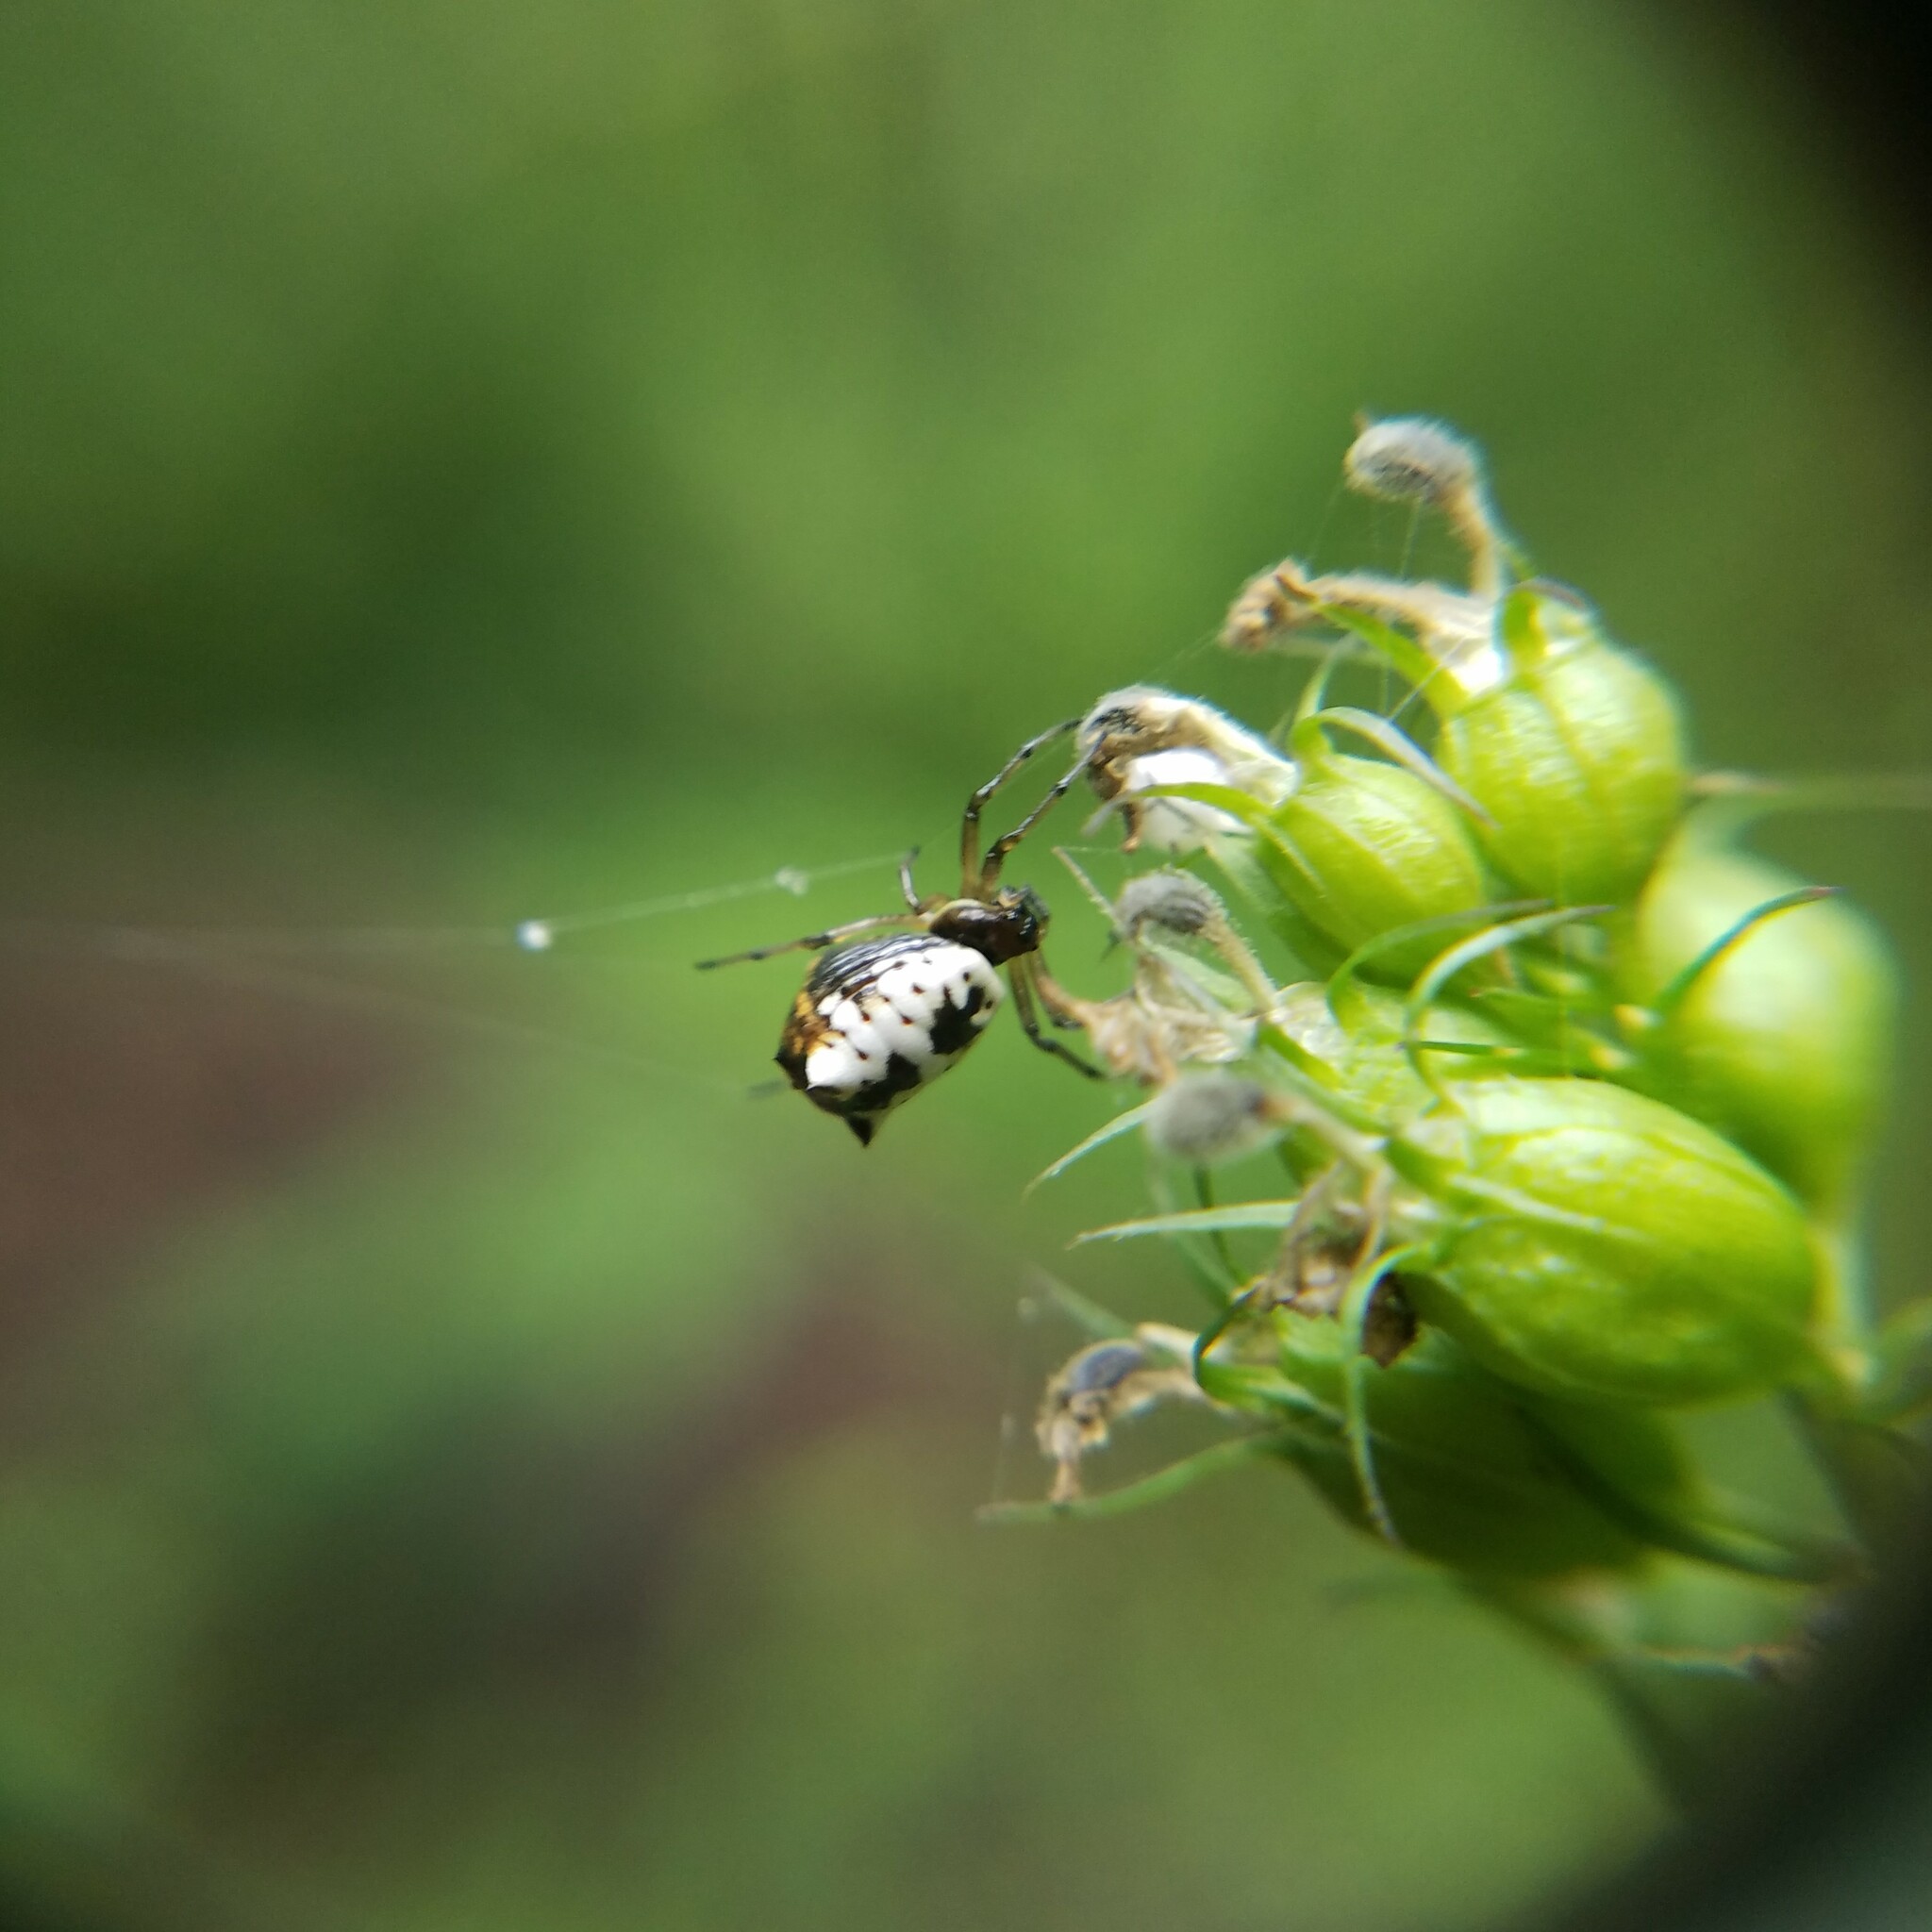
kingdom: Animalia
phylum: Arthropoda
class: Arachnida
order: Araneae
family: Araneidae
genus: Micrathena
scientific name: Micrathena mitrata
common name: Orb weavers
